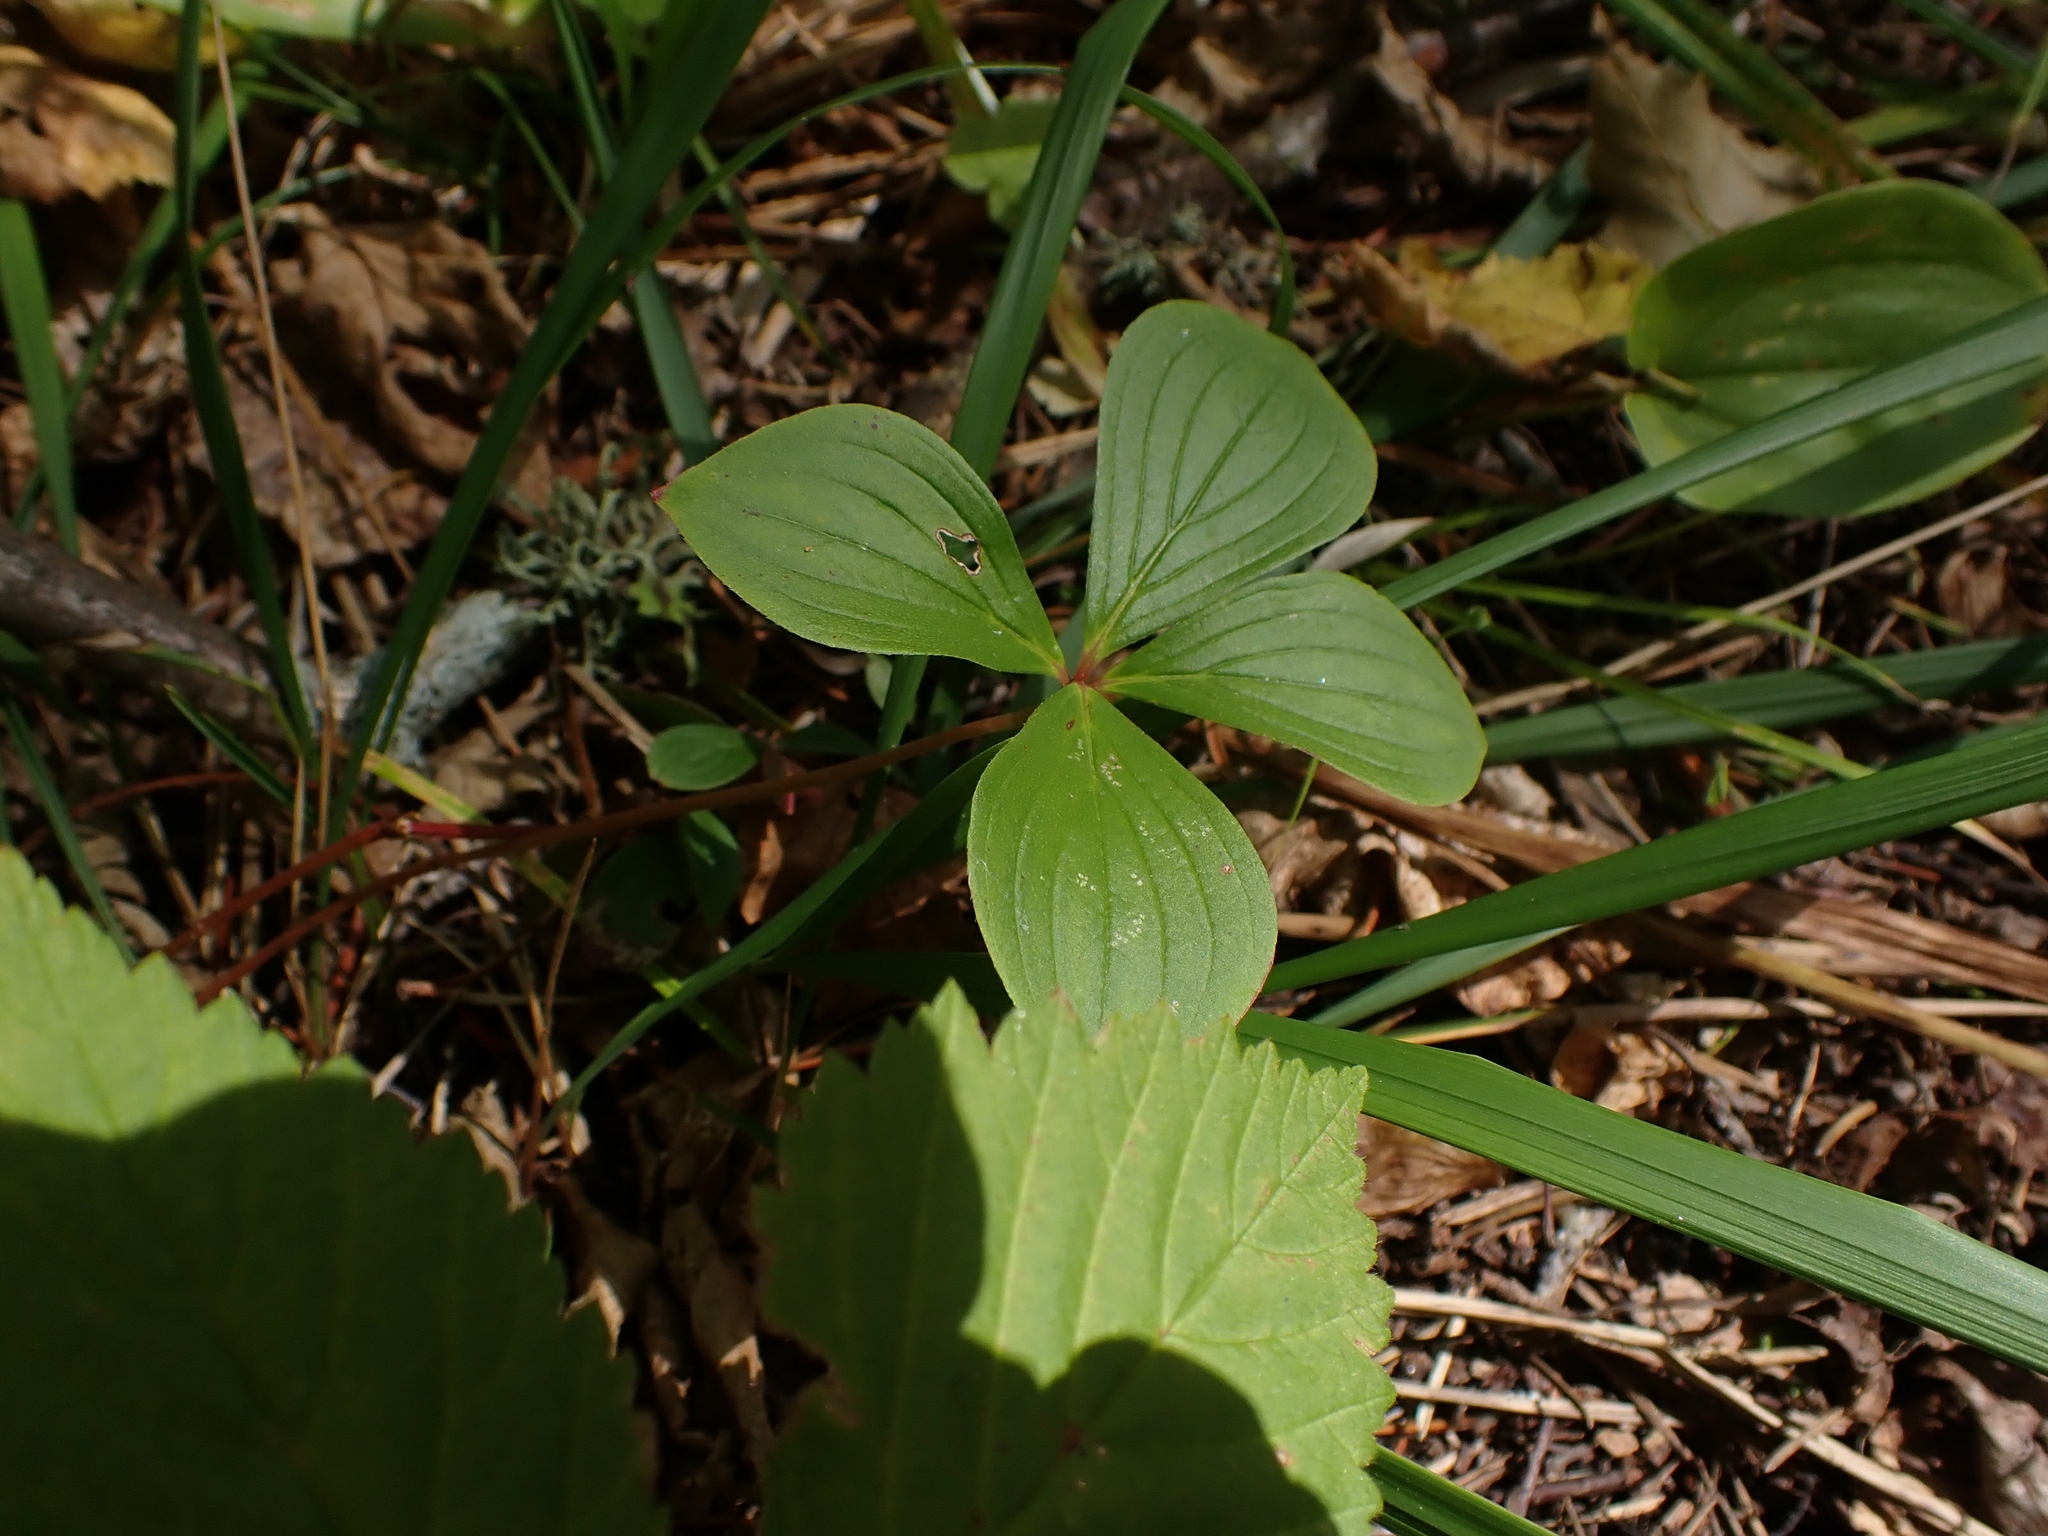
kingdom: Plantae
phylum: Tracheophyta
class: Magnoliopsida
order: Cornales
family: Cornaceae
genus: Cornus
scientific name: Cornus canadensis
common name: Creeping dogwood
